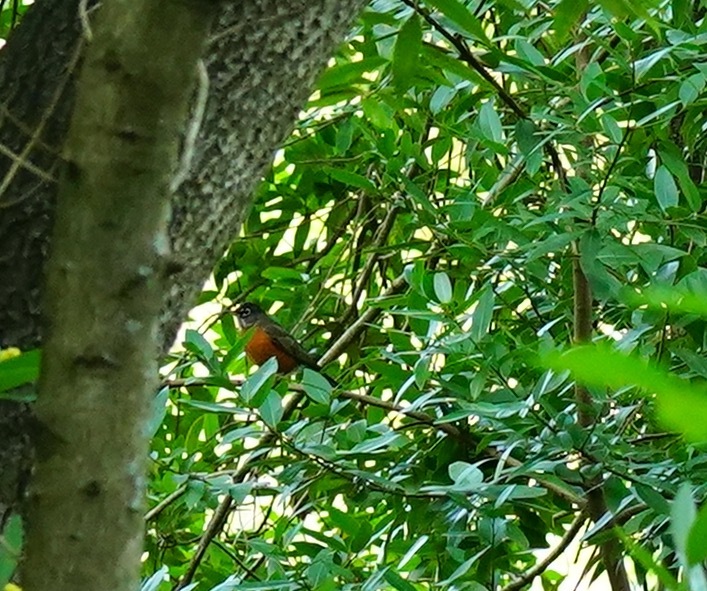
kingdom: Animalia
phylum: Chordata
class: Aves
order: Passeriformes
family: Turdidae
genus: Turdus
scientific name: Turdus migratorius
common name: American robin
